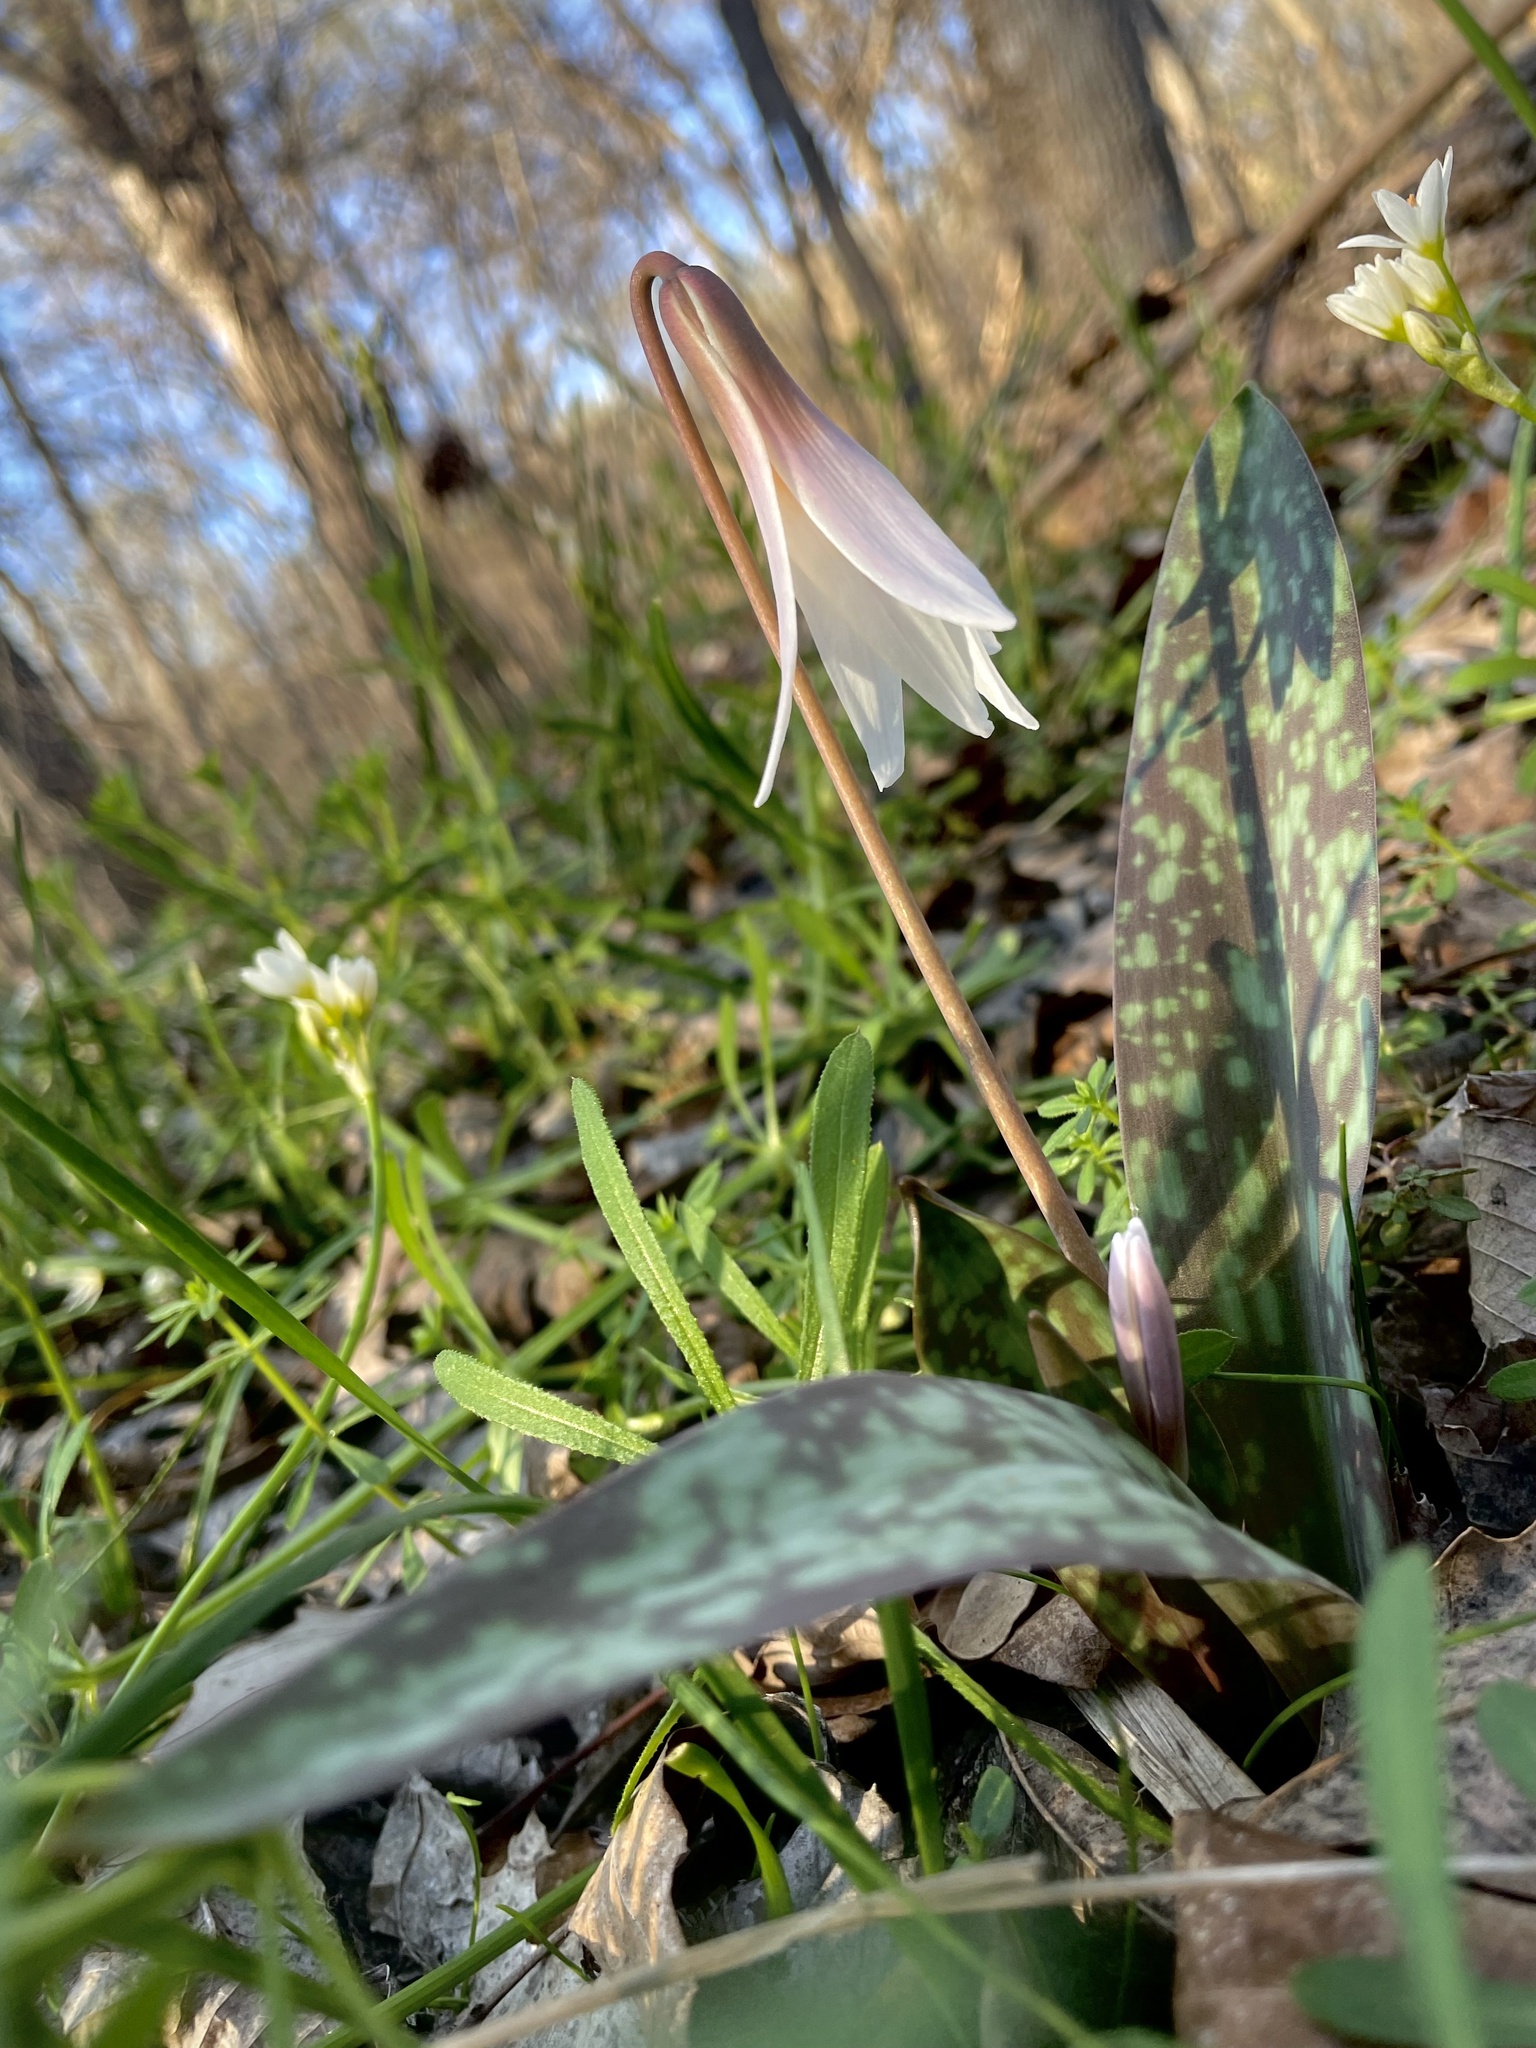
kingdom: Plantae
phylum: Tracheophyta
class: Liliopsida
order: Liliales
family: Liliaceae
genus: Erythronium
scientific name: Erythronium albidum
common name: White trout-lily
